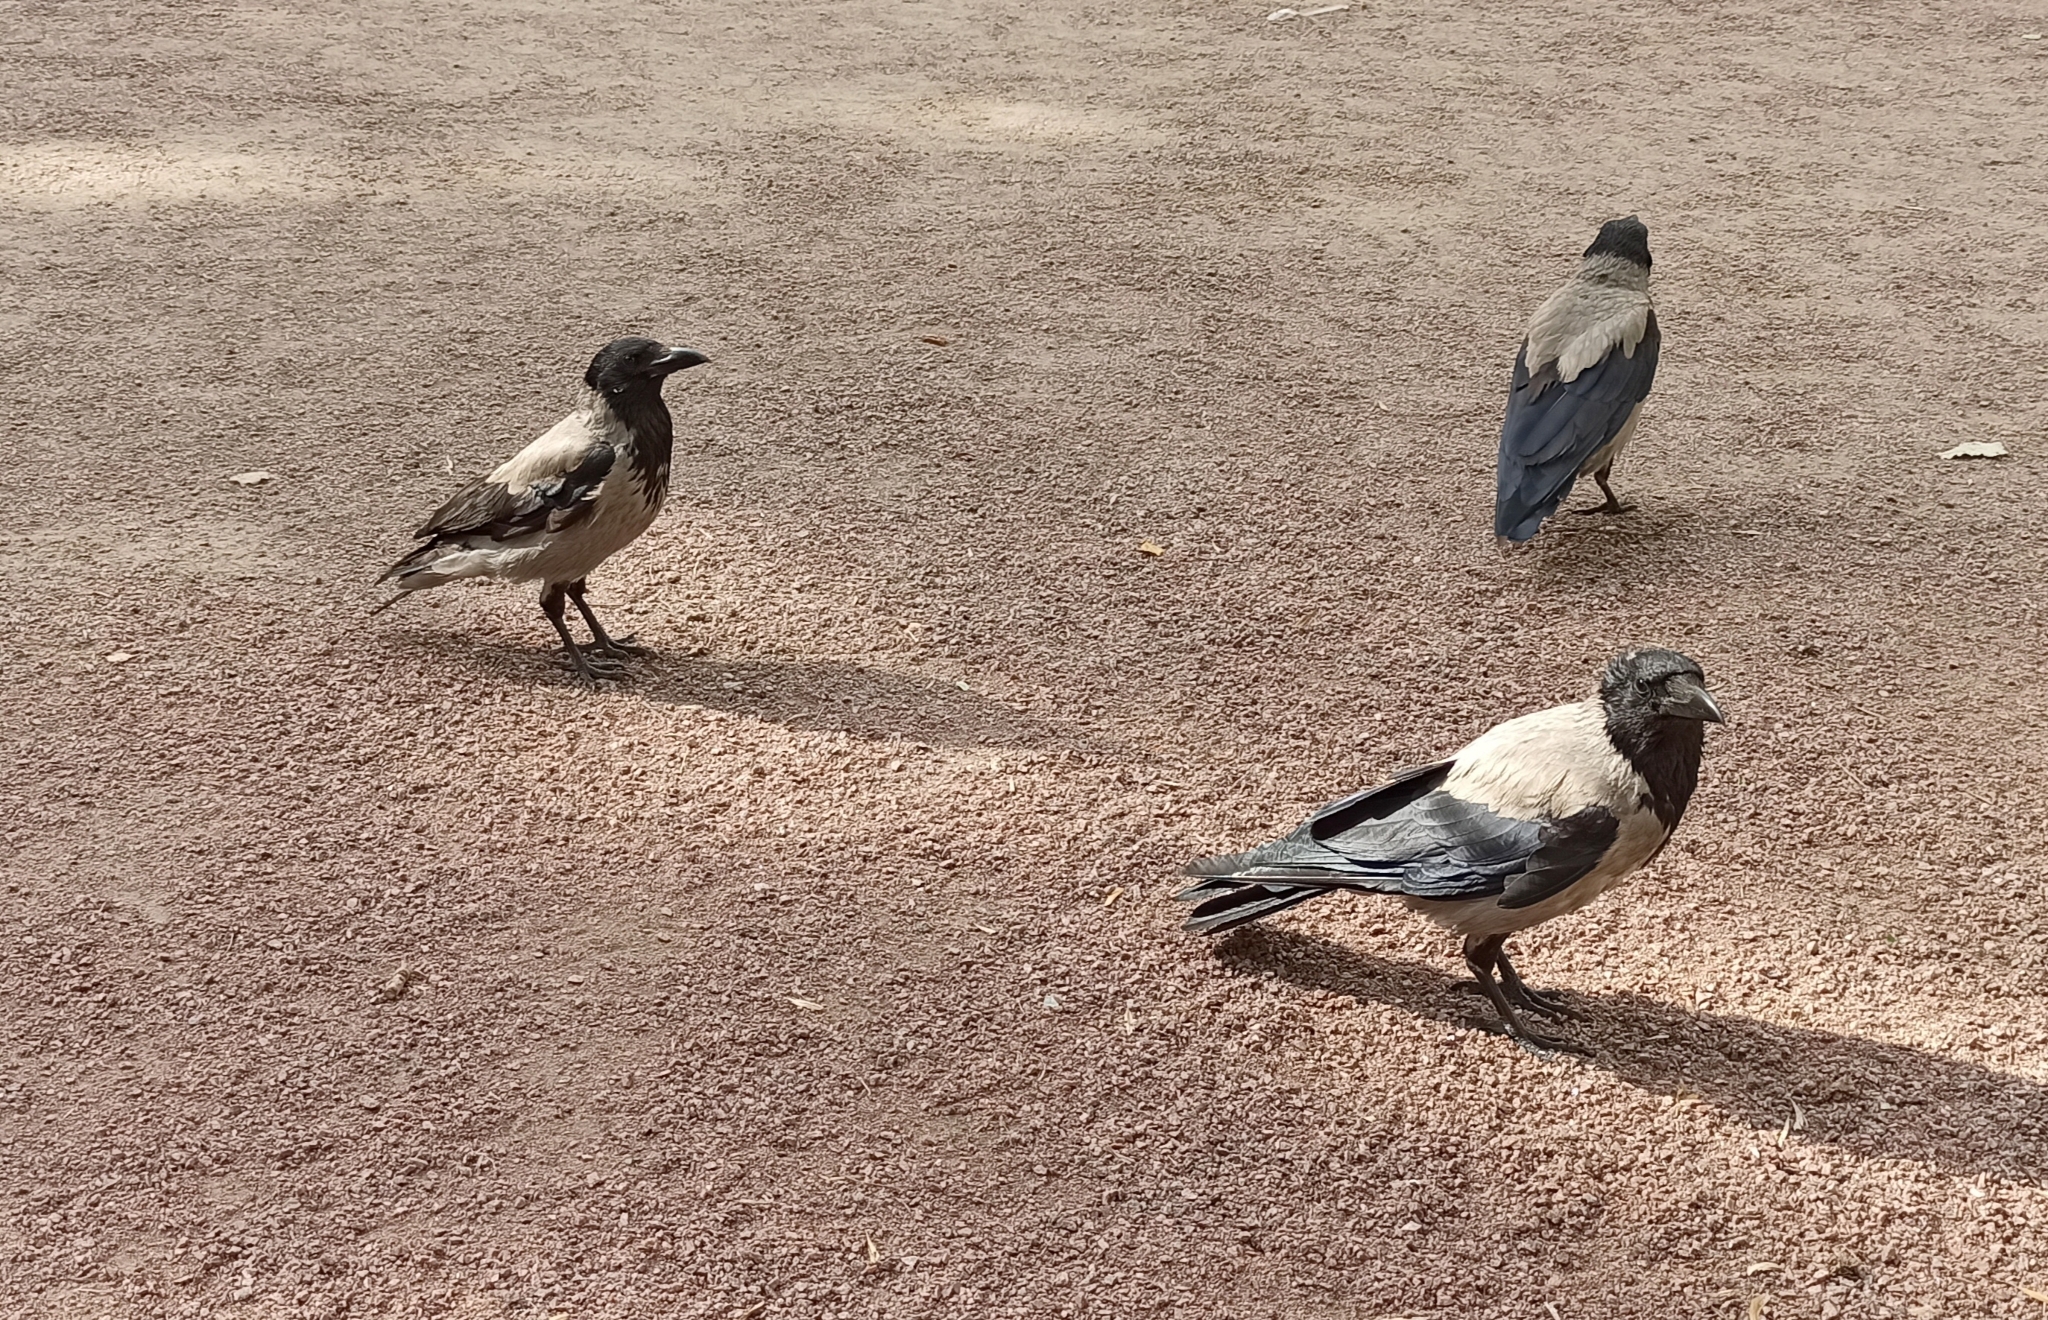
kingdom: Animalia
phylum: Chordata
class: Aves
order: Passeriformes
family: Corvidae
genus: Corvus
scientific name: Corvus cornix
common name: Hooded crow
